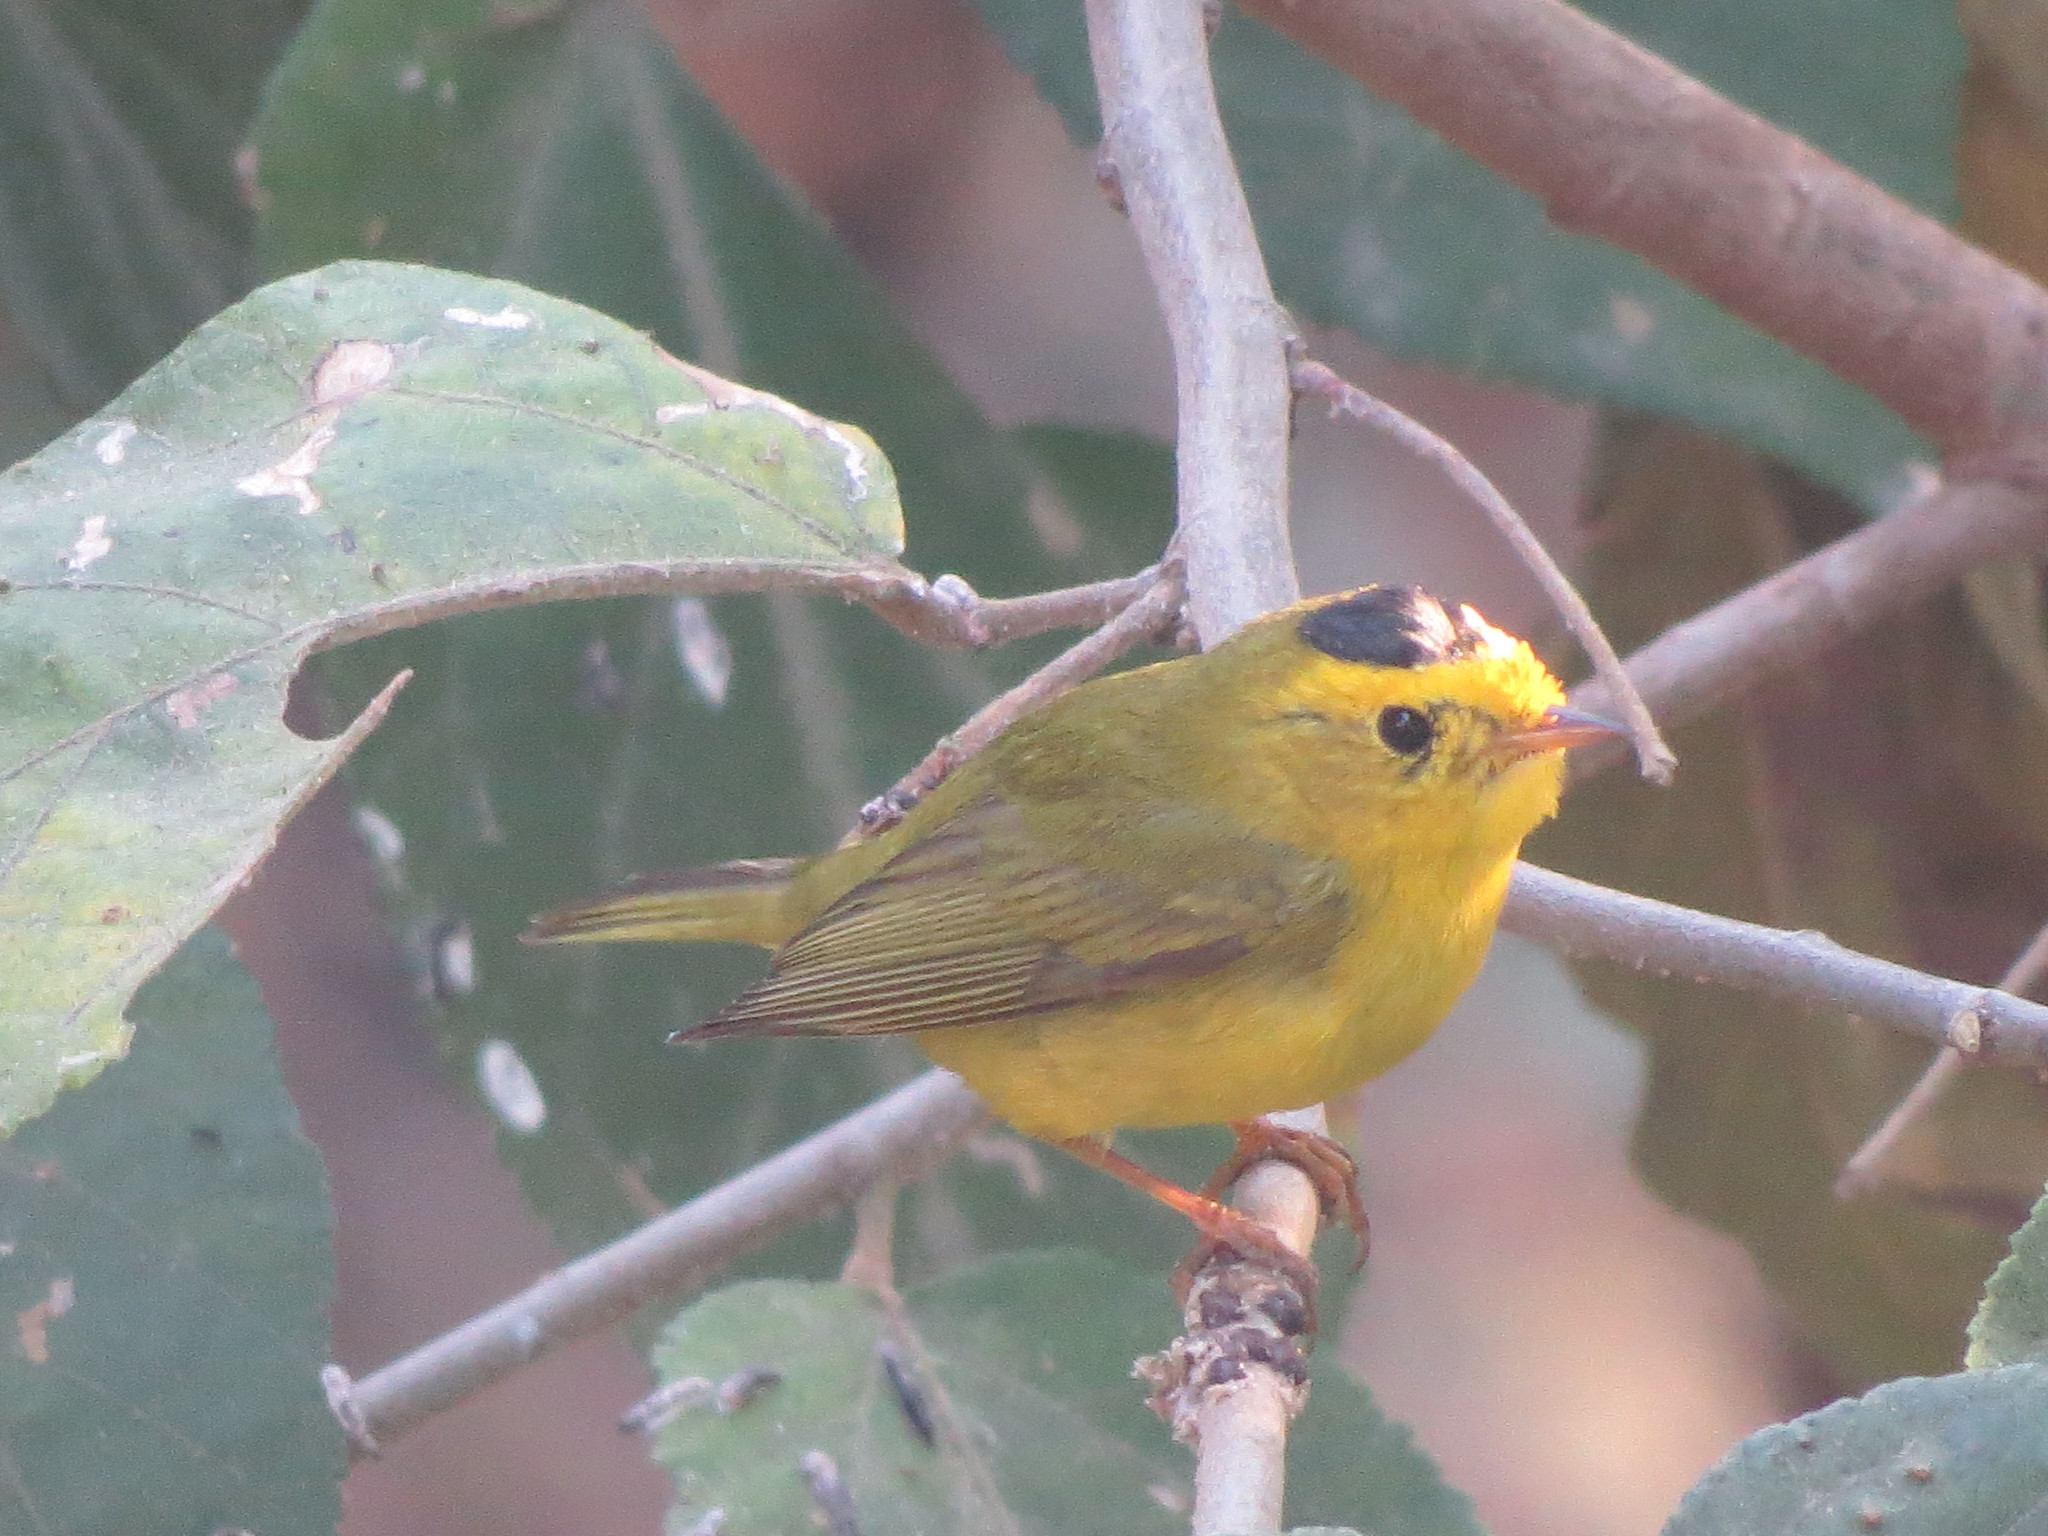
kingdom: Animalia
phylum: Chordata
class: Aves
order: Passeriformes
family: Parulidae
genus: Cardellina
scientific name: Cardellina pusilla
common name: Wilson's warbler
